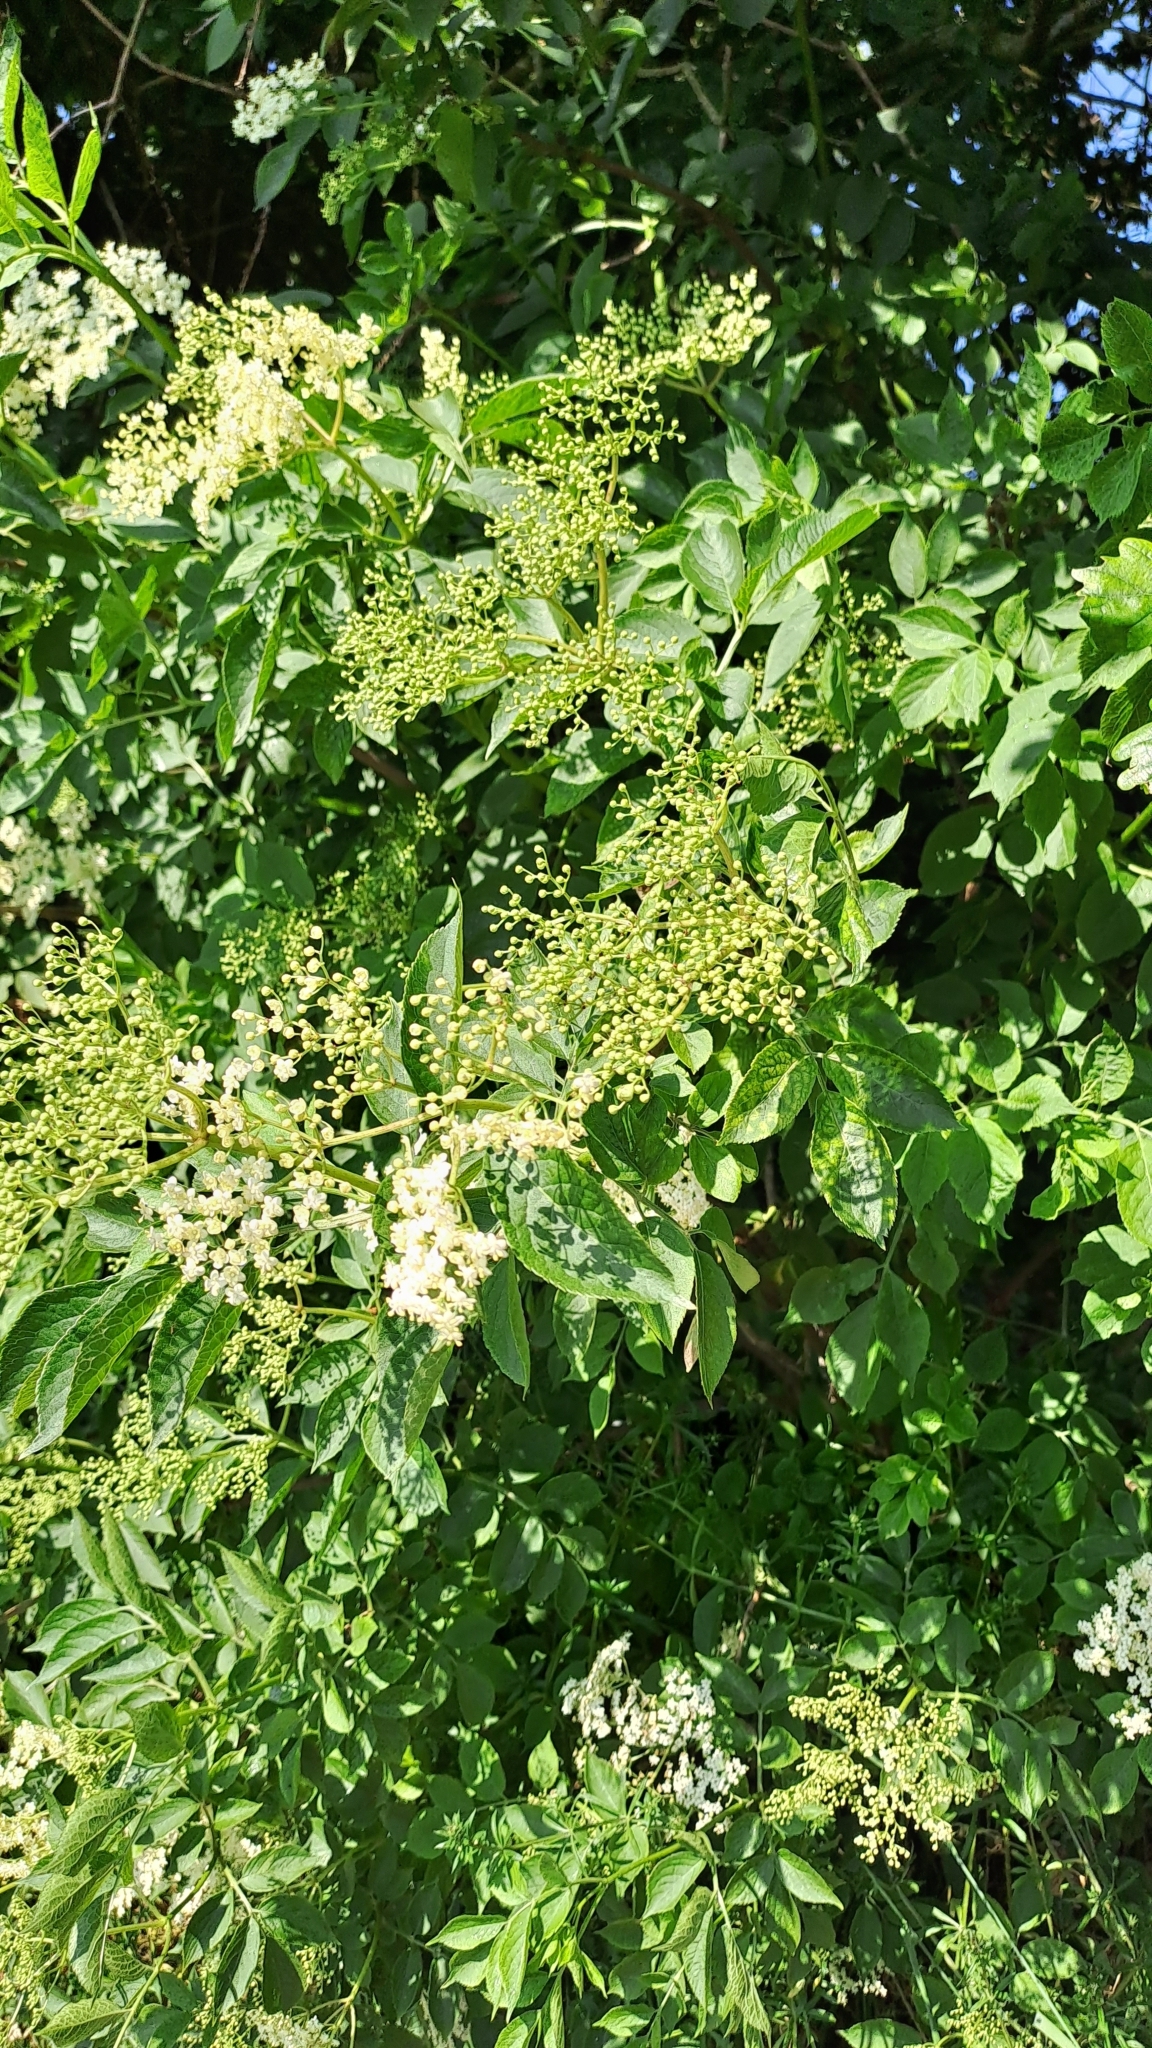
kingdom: Plantae
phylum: Tracheophyta
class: Magnoliopsida
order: Dipsacales
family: Viburnaceae
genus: Sambucus
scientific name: Sambucus nigra
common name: Elder
